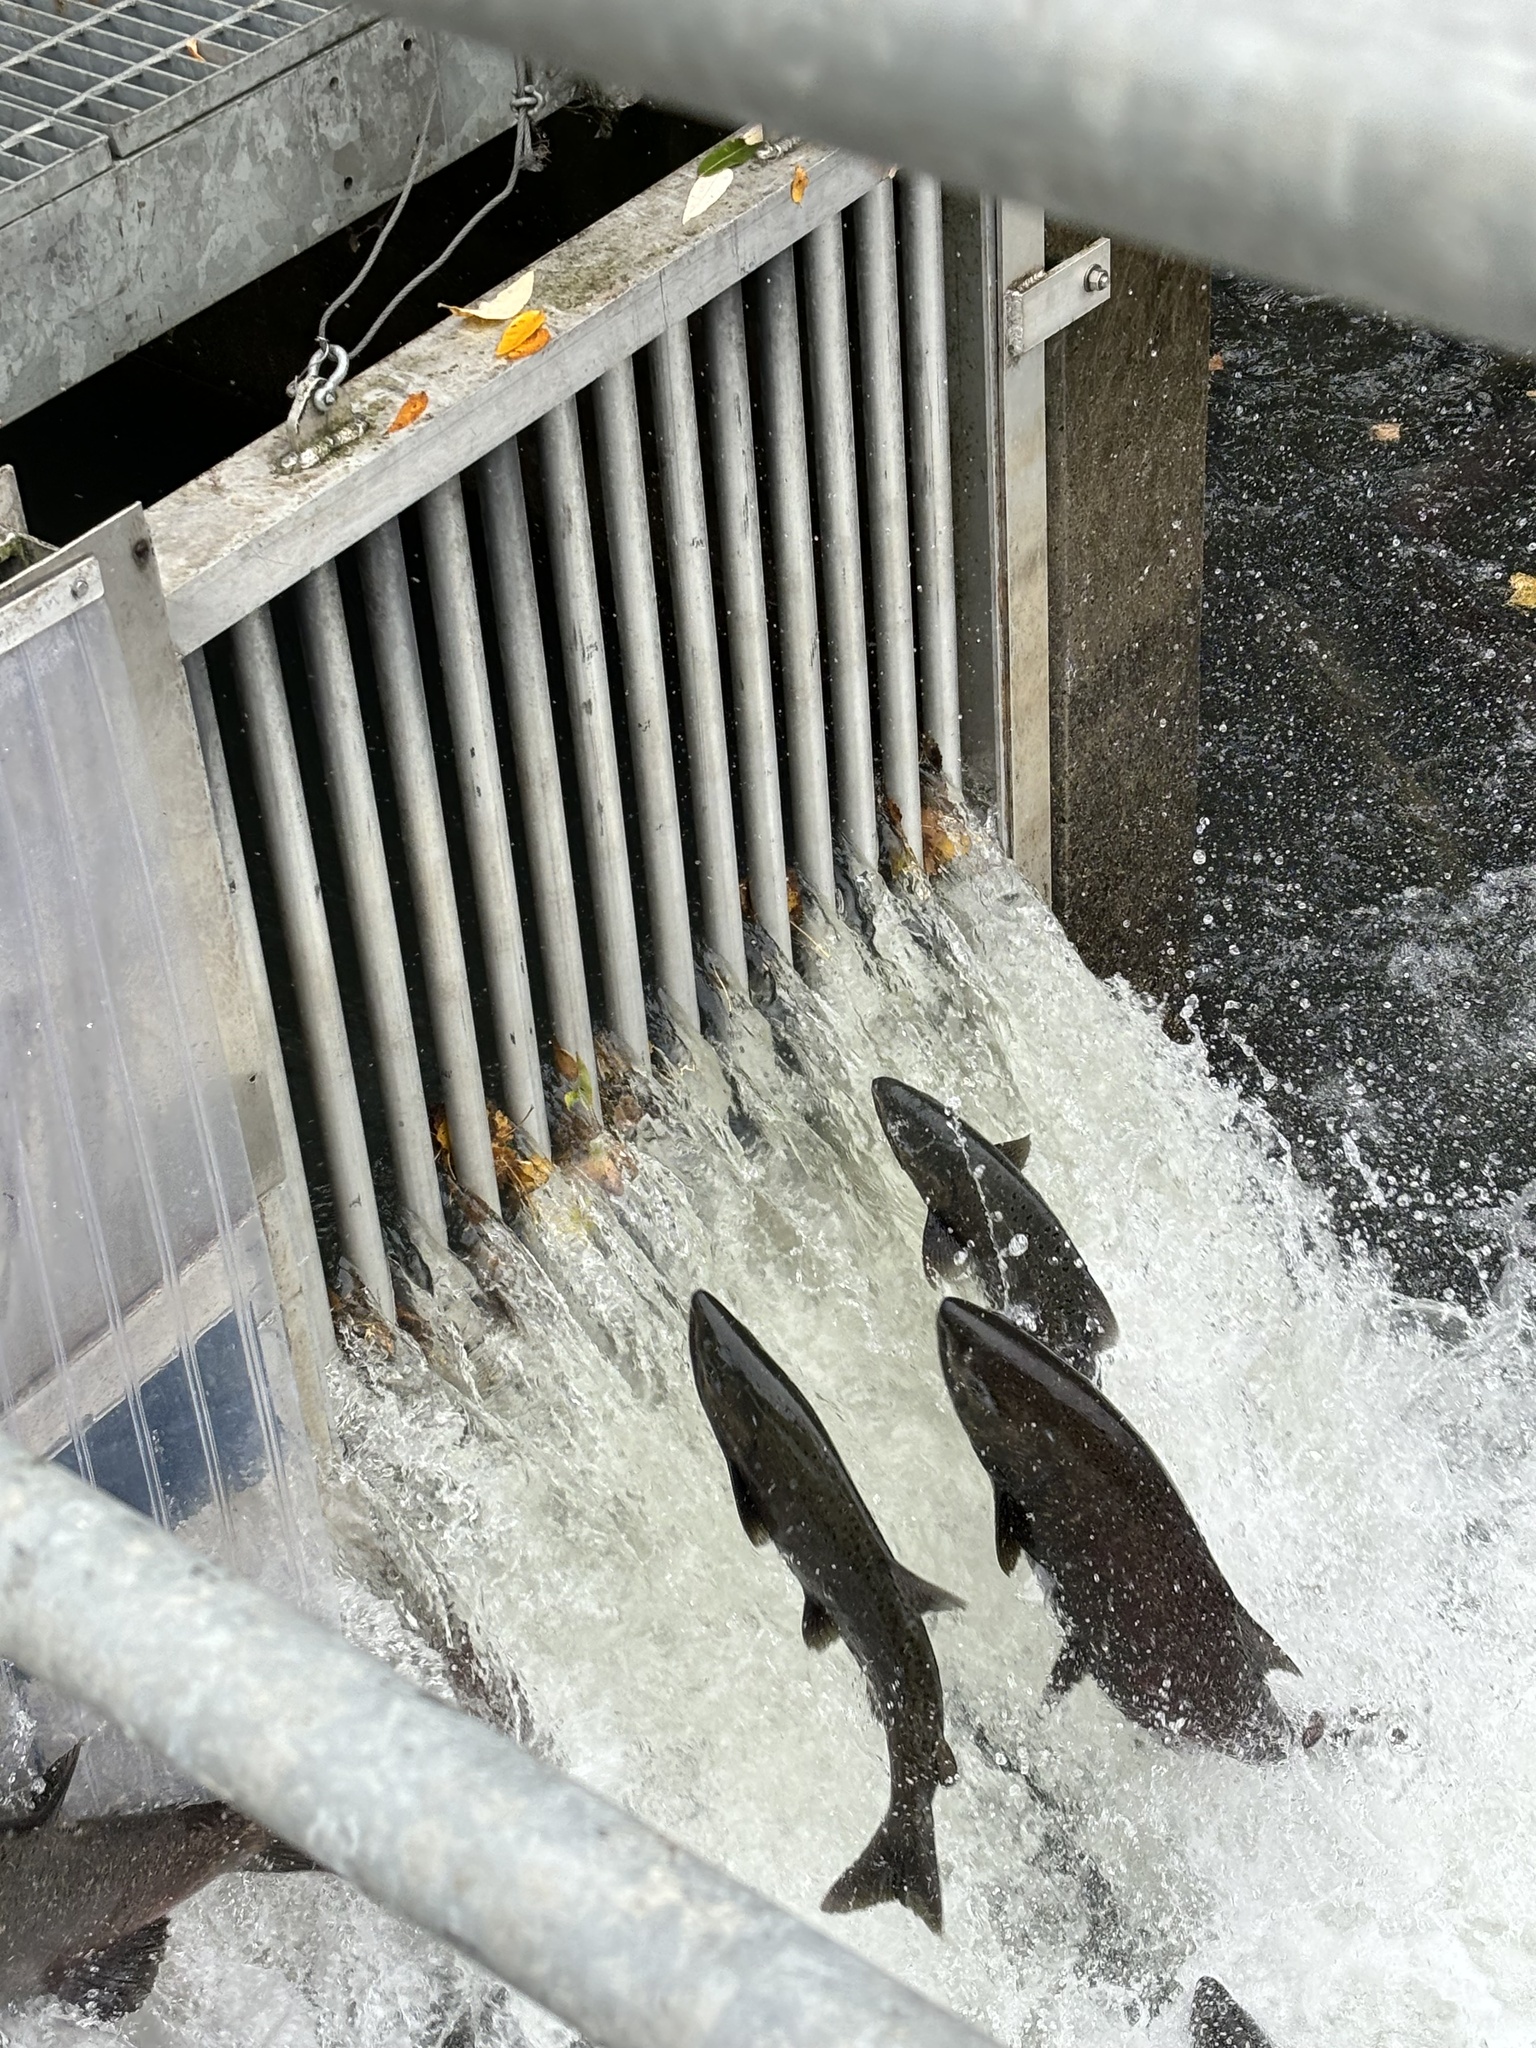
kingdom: Animalia
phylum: Chordata
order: Salmoniformes
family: Salmonidae
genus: Oncorhynchus
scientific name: Oncorhynchus tshawytscha
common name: Chinook salmon
